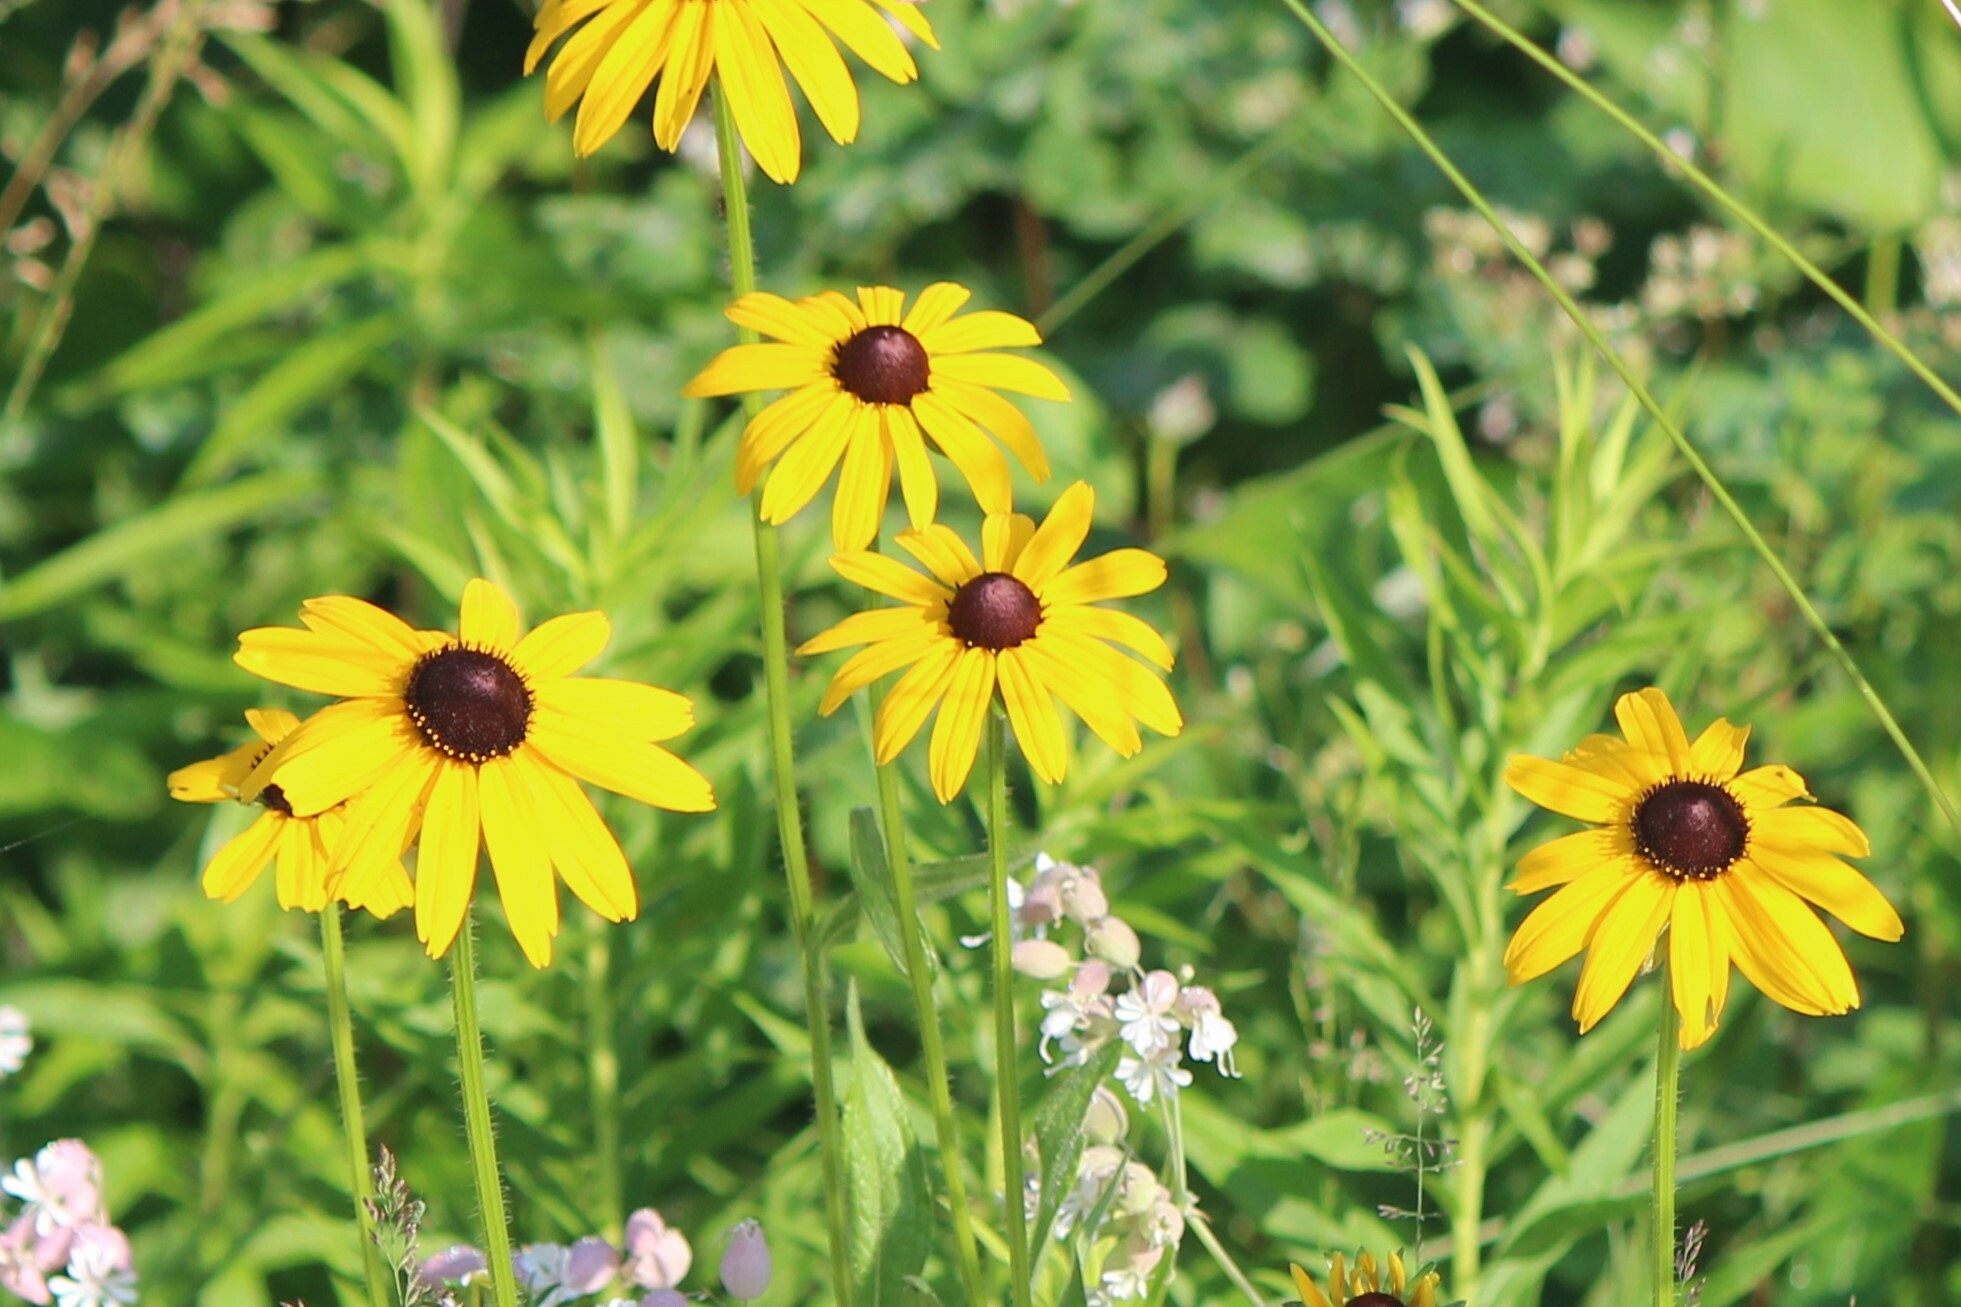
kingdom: Plantae
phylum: Tracheophyta
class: Magnoliopsida
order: Asterales
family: Asteraceae
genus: Rudbeckia
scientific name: Rudbeckia hirta
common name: Black-eyed-susan
